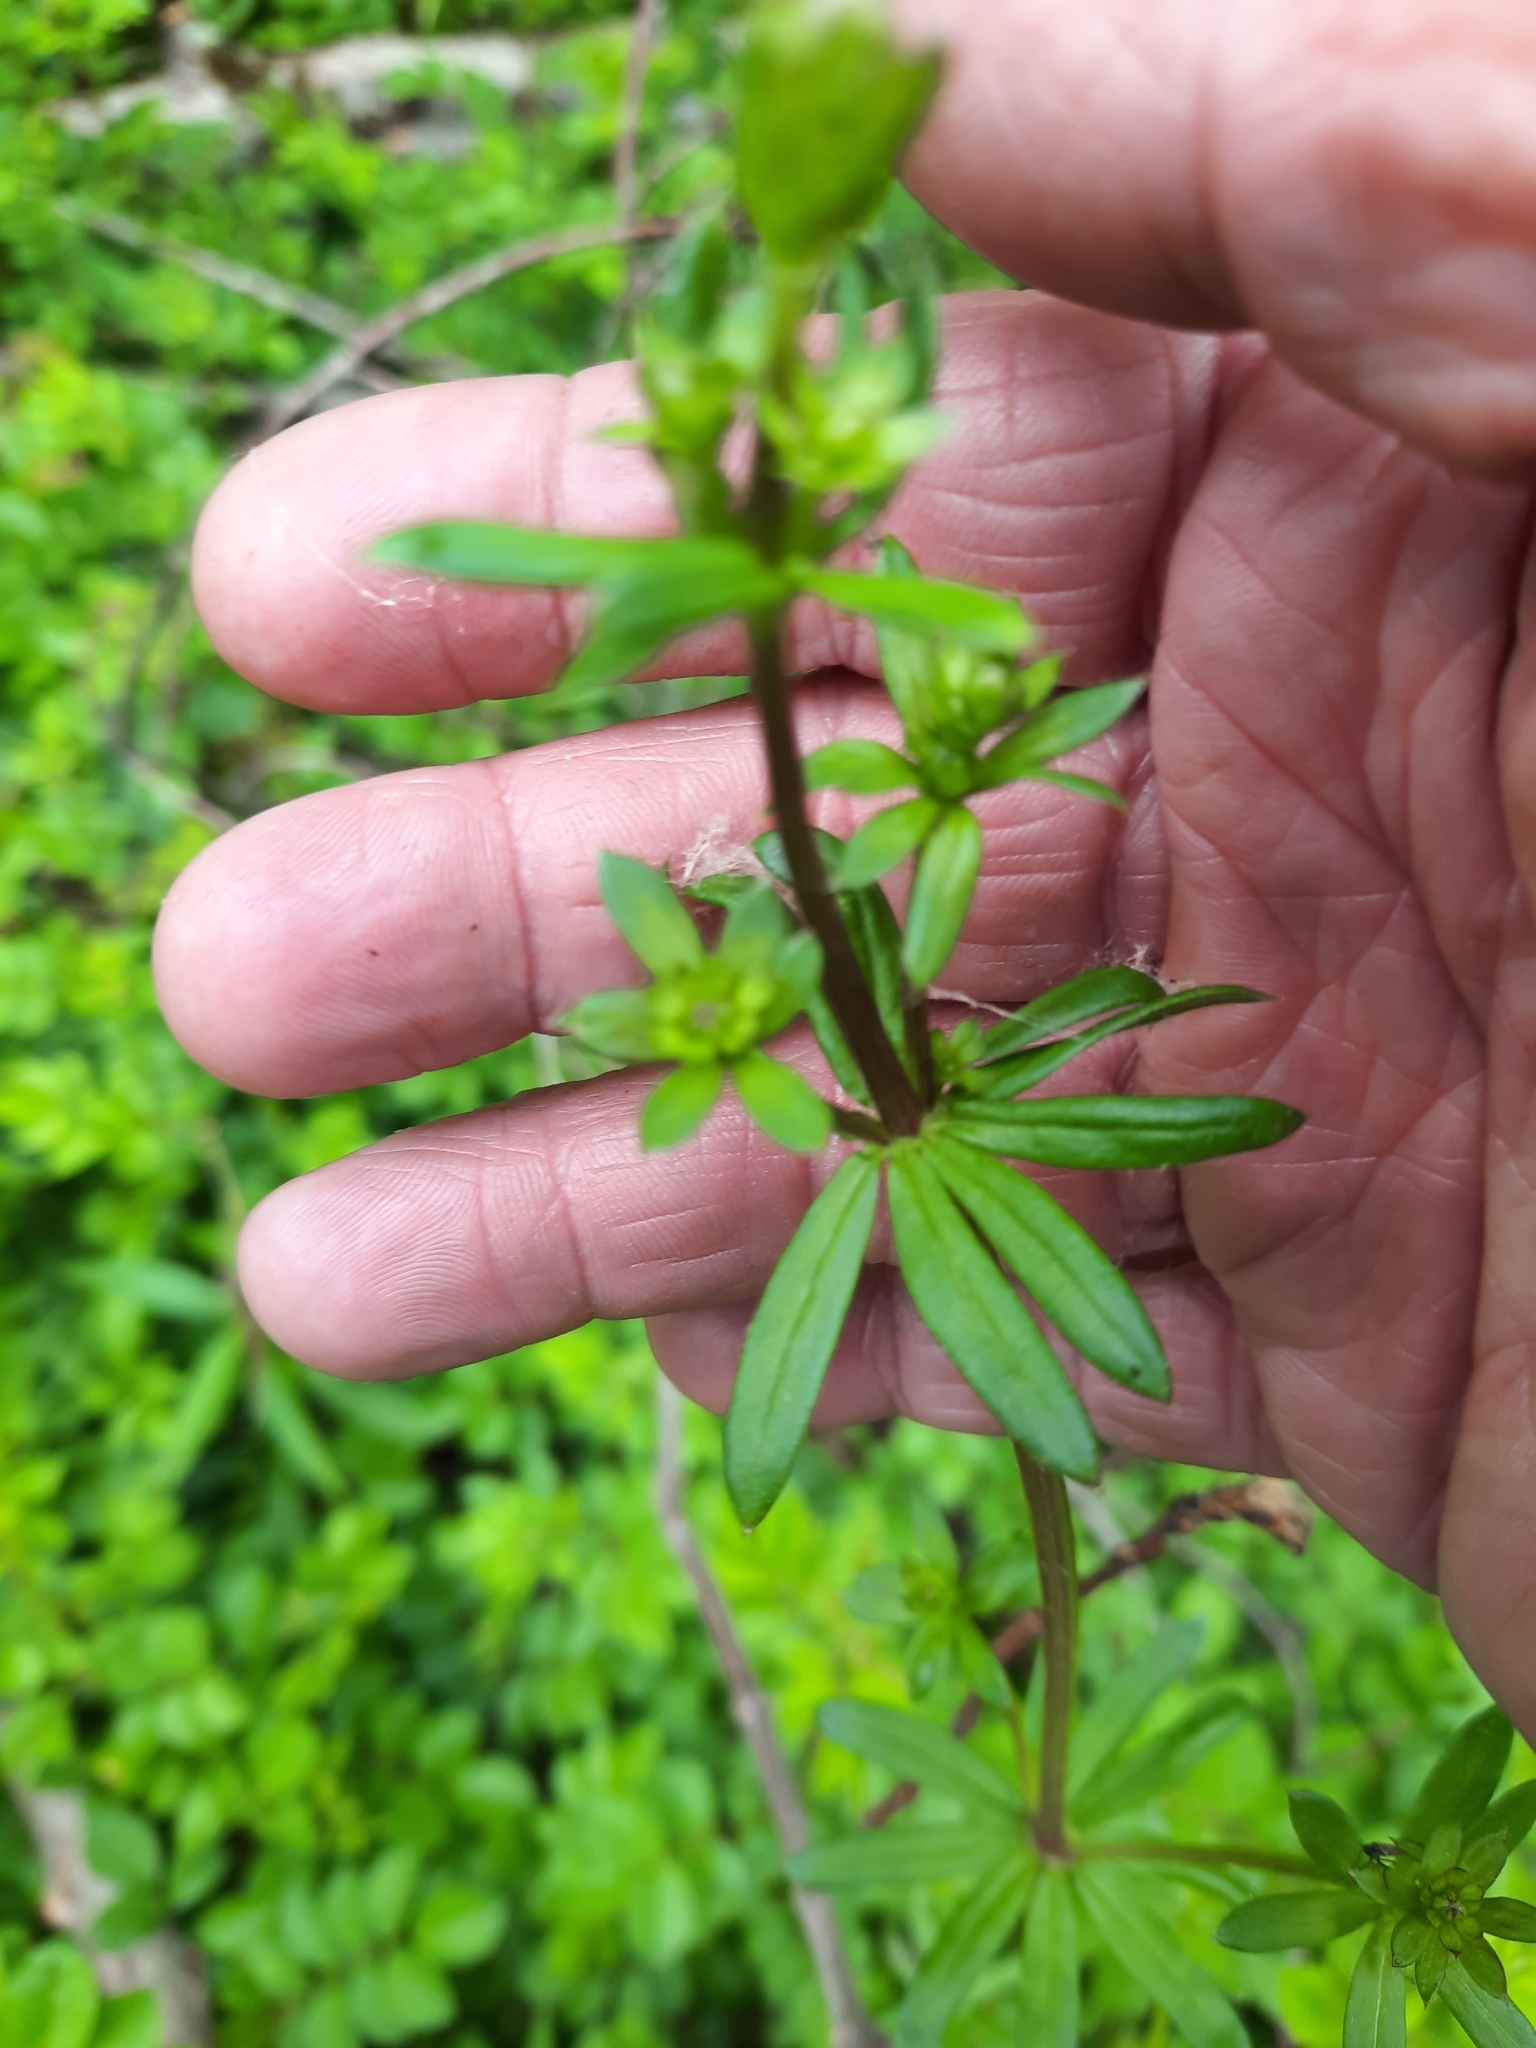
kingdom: Plantae
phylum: Tracheophyta
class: Magnoliopsida
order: Gentianales
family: Rubiaceae
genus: Galium
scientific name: Galium mollugo
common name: Hedge bedstraw
